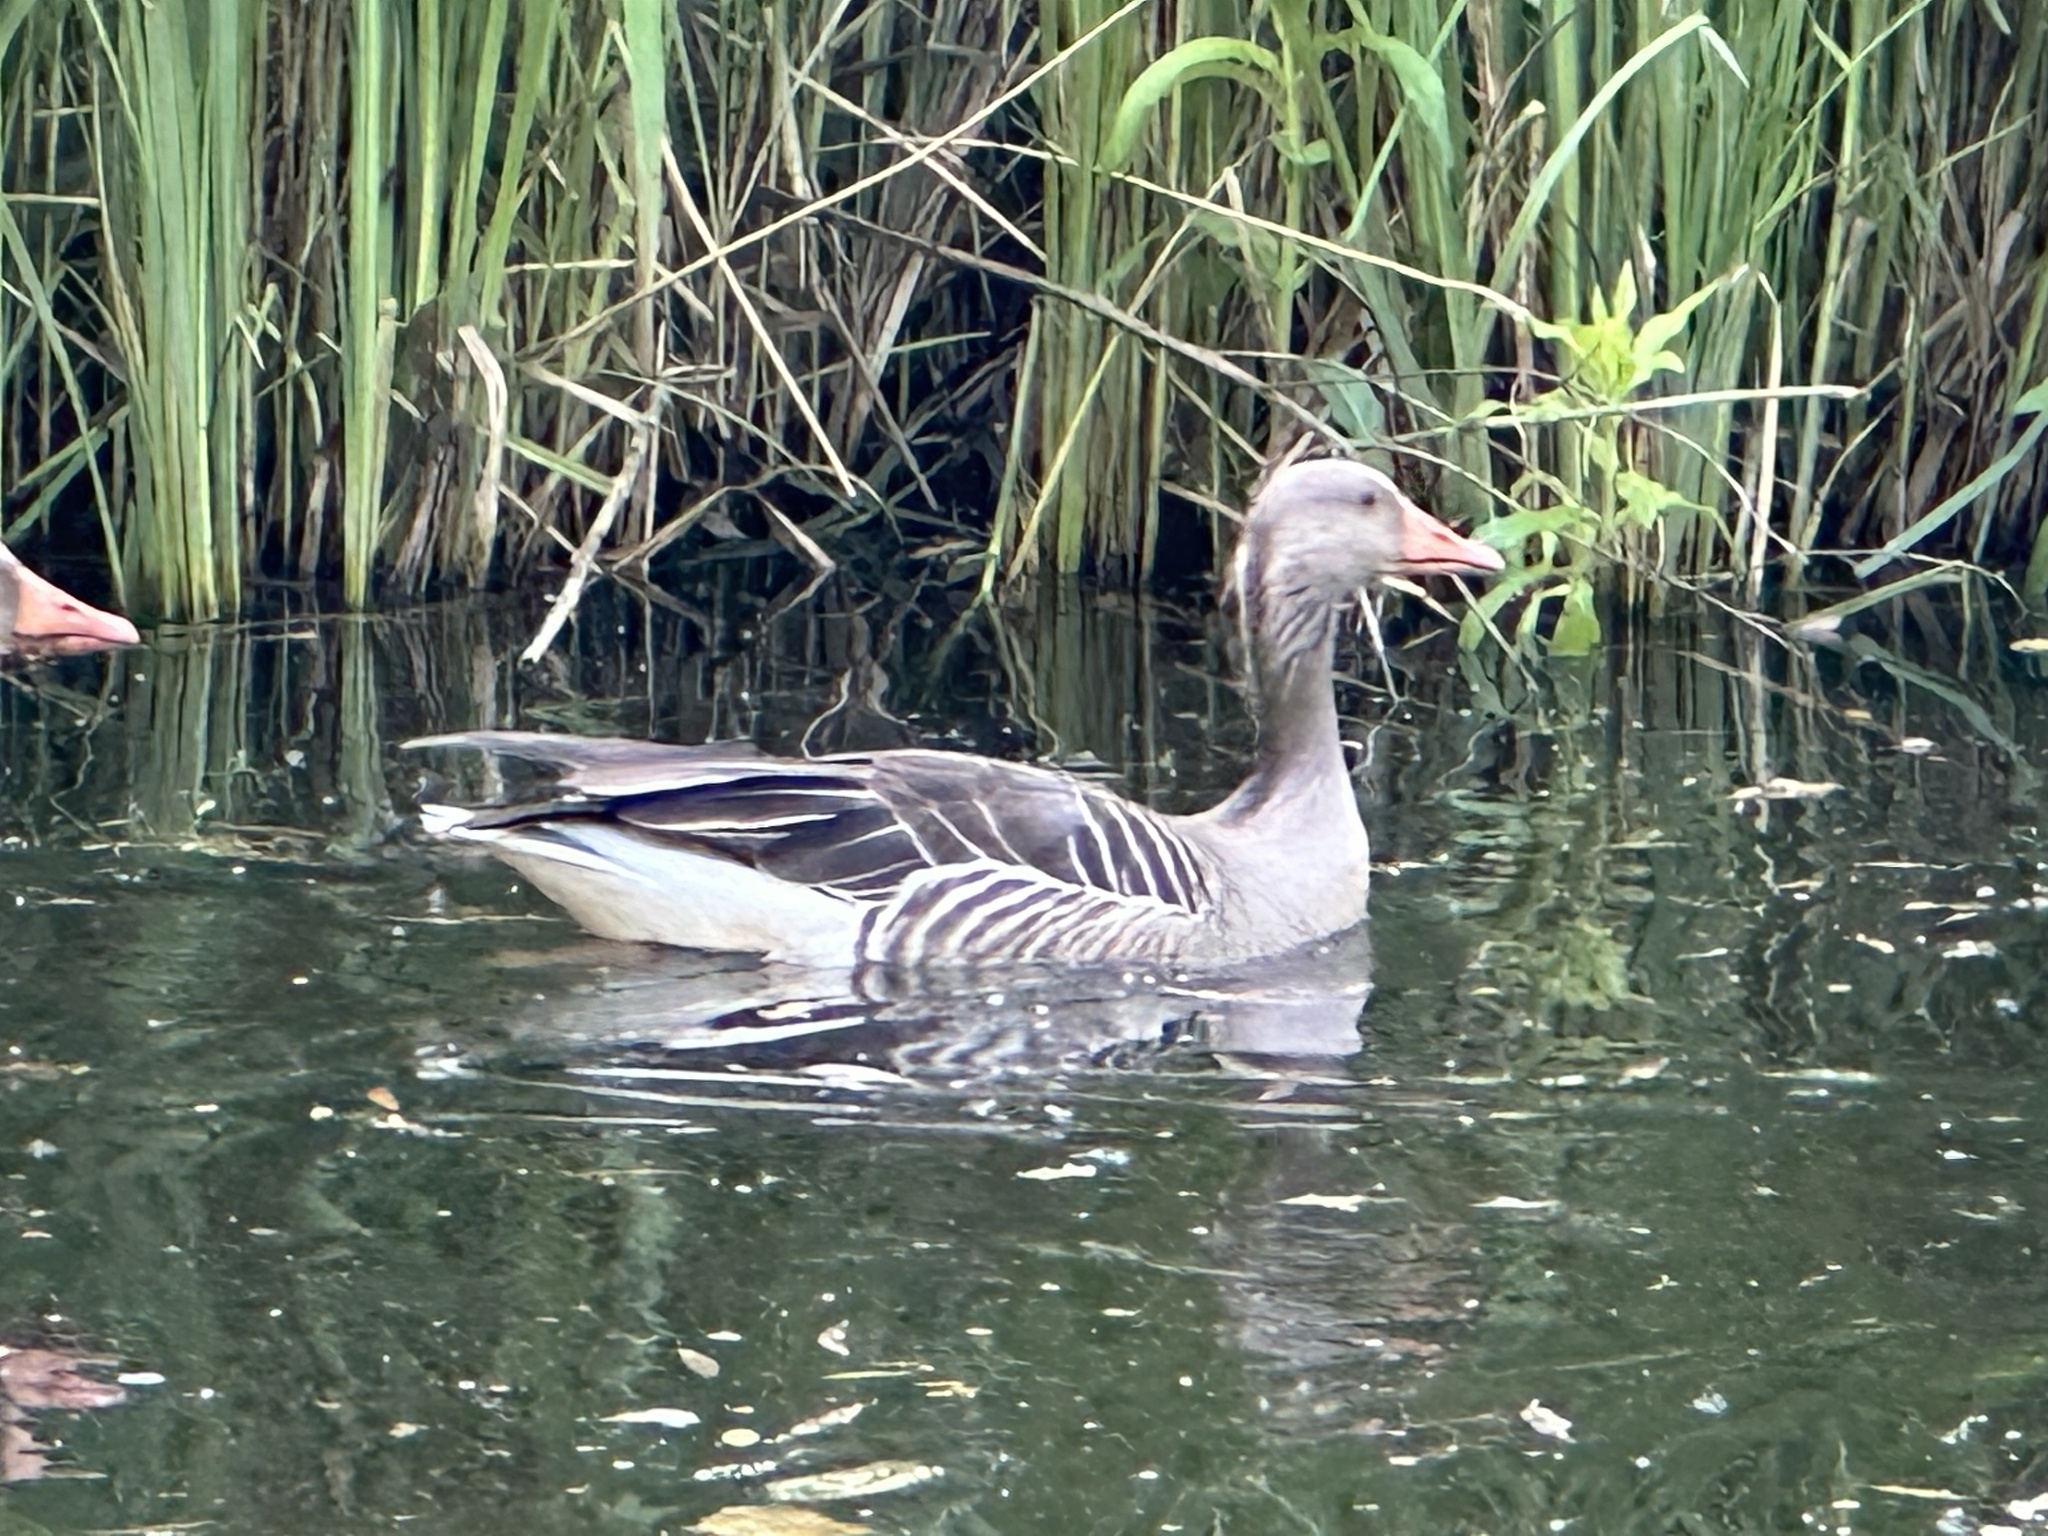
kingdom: Animalia
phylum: Chordata
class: Aves
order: Anseriformes
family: Anatidae
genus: Anser
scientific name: Anser anser
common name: Greylag goose
